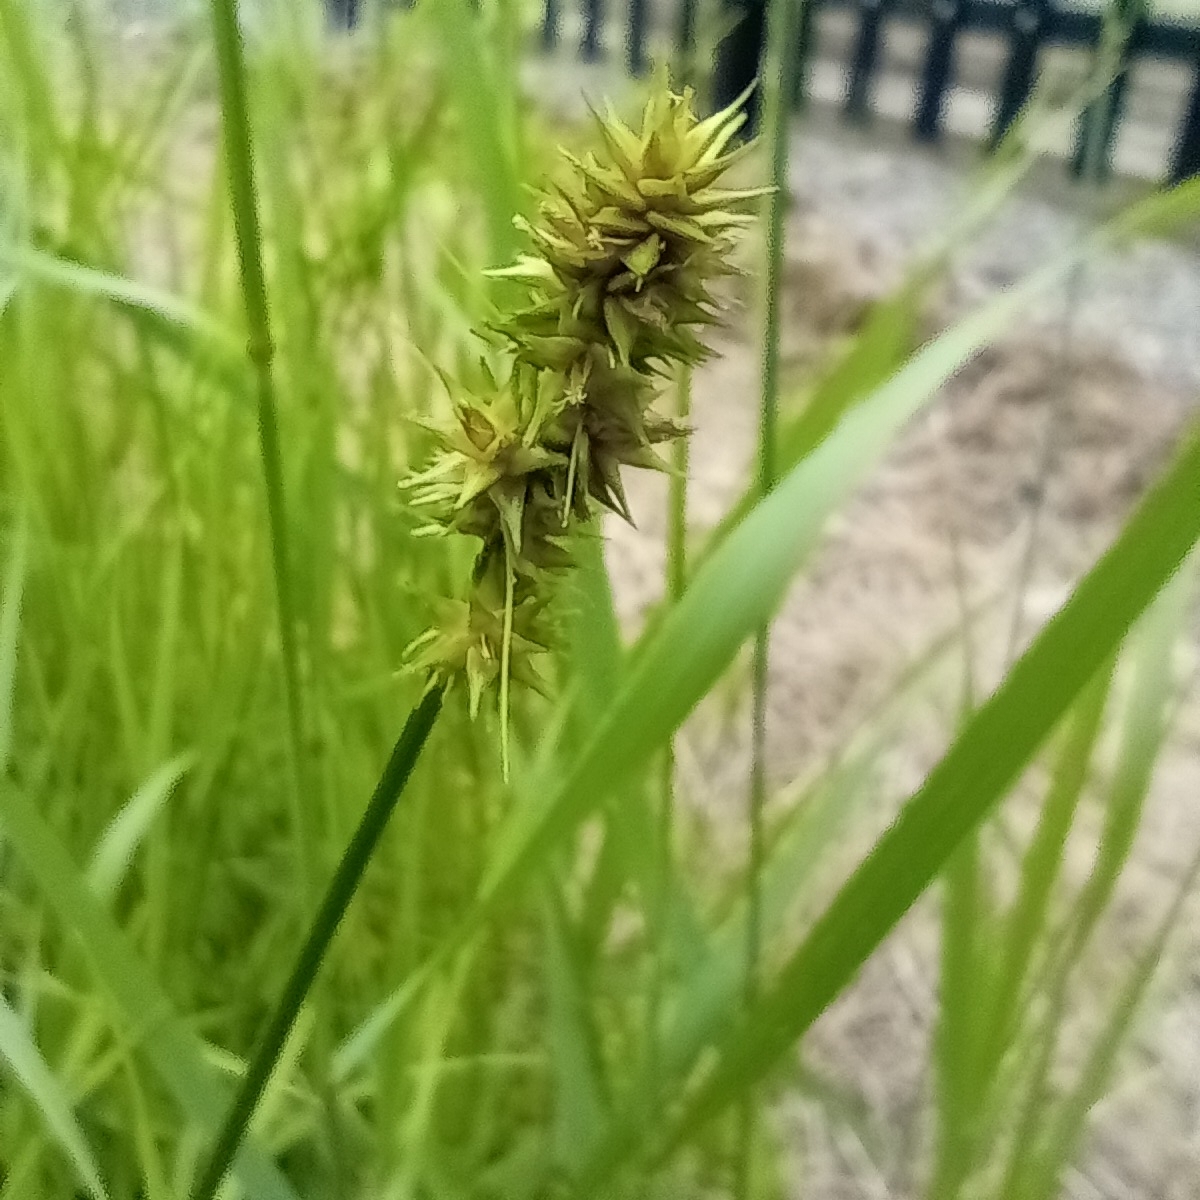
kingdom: Plantae
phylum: Tracheophyta
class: Liliopsida
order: Poales
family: Cyperaceae
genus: Carex
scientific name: Carex otrubae
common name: False fox-sedge
